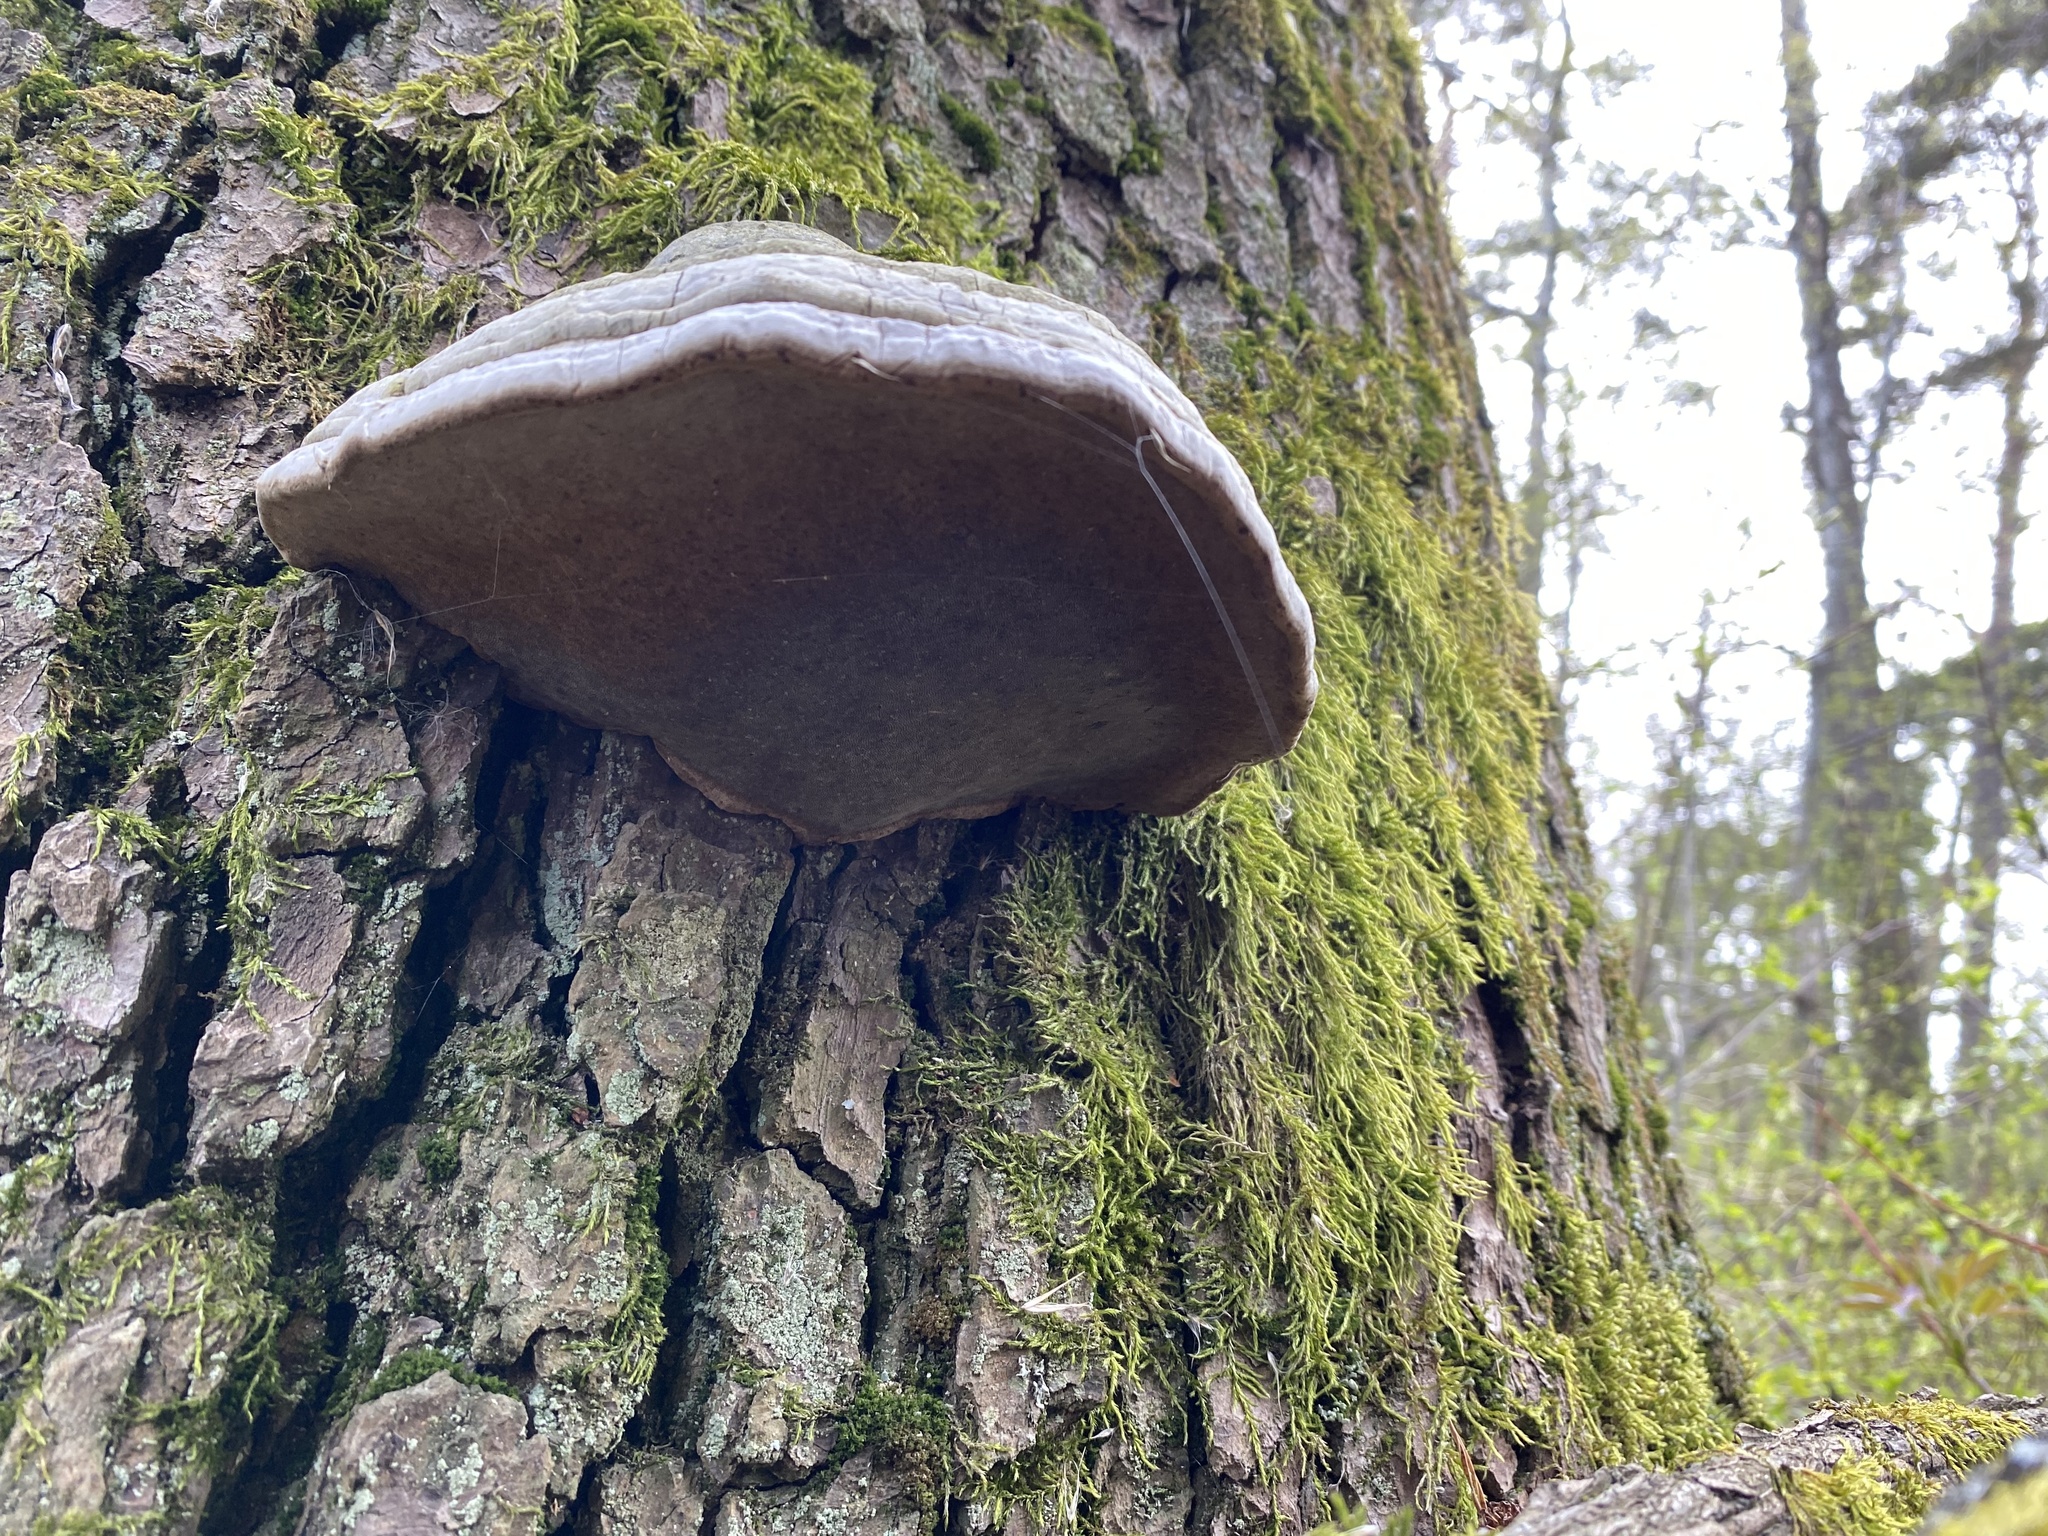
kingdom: Fungi
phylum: Basidiomycota
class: Agaricomycetes
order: Polyporales
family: Polyporaceae
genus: Fomes
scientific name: Fomes fomentarius
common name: Hoof fungus
